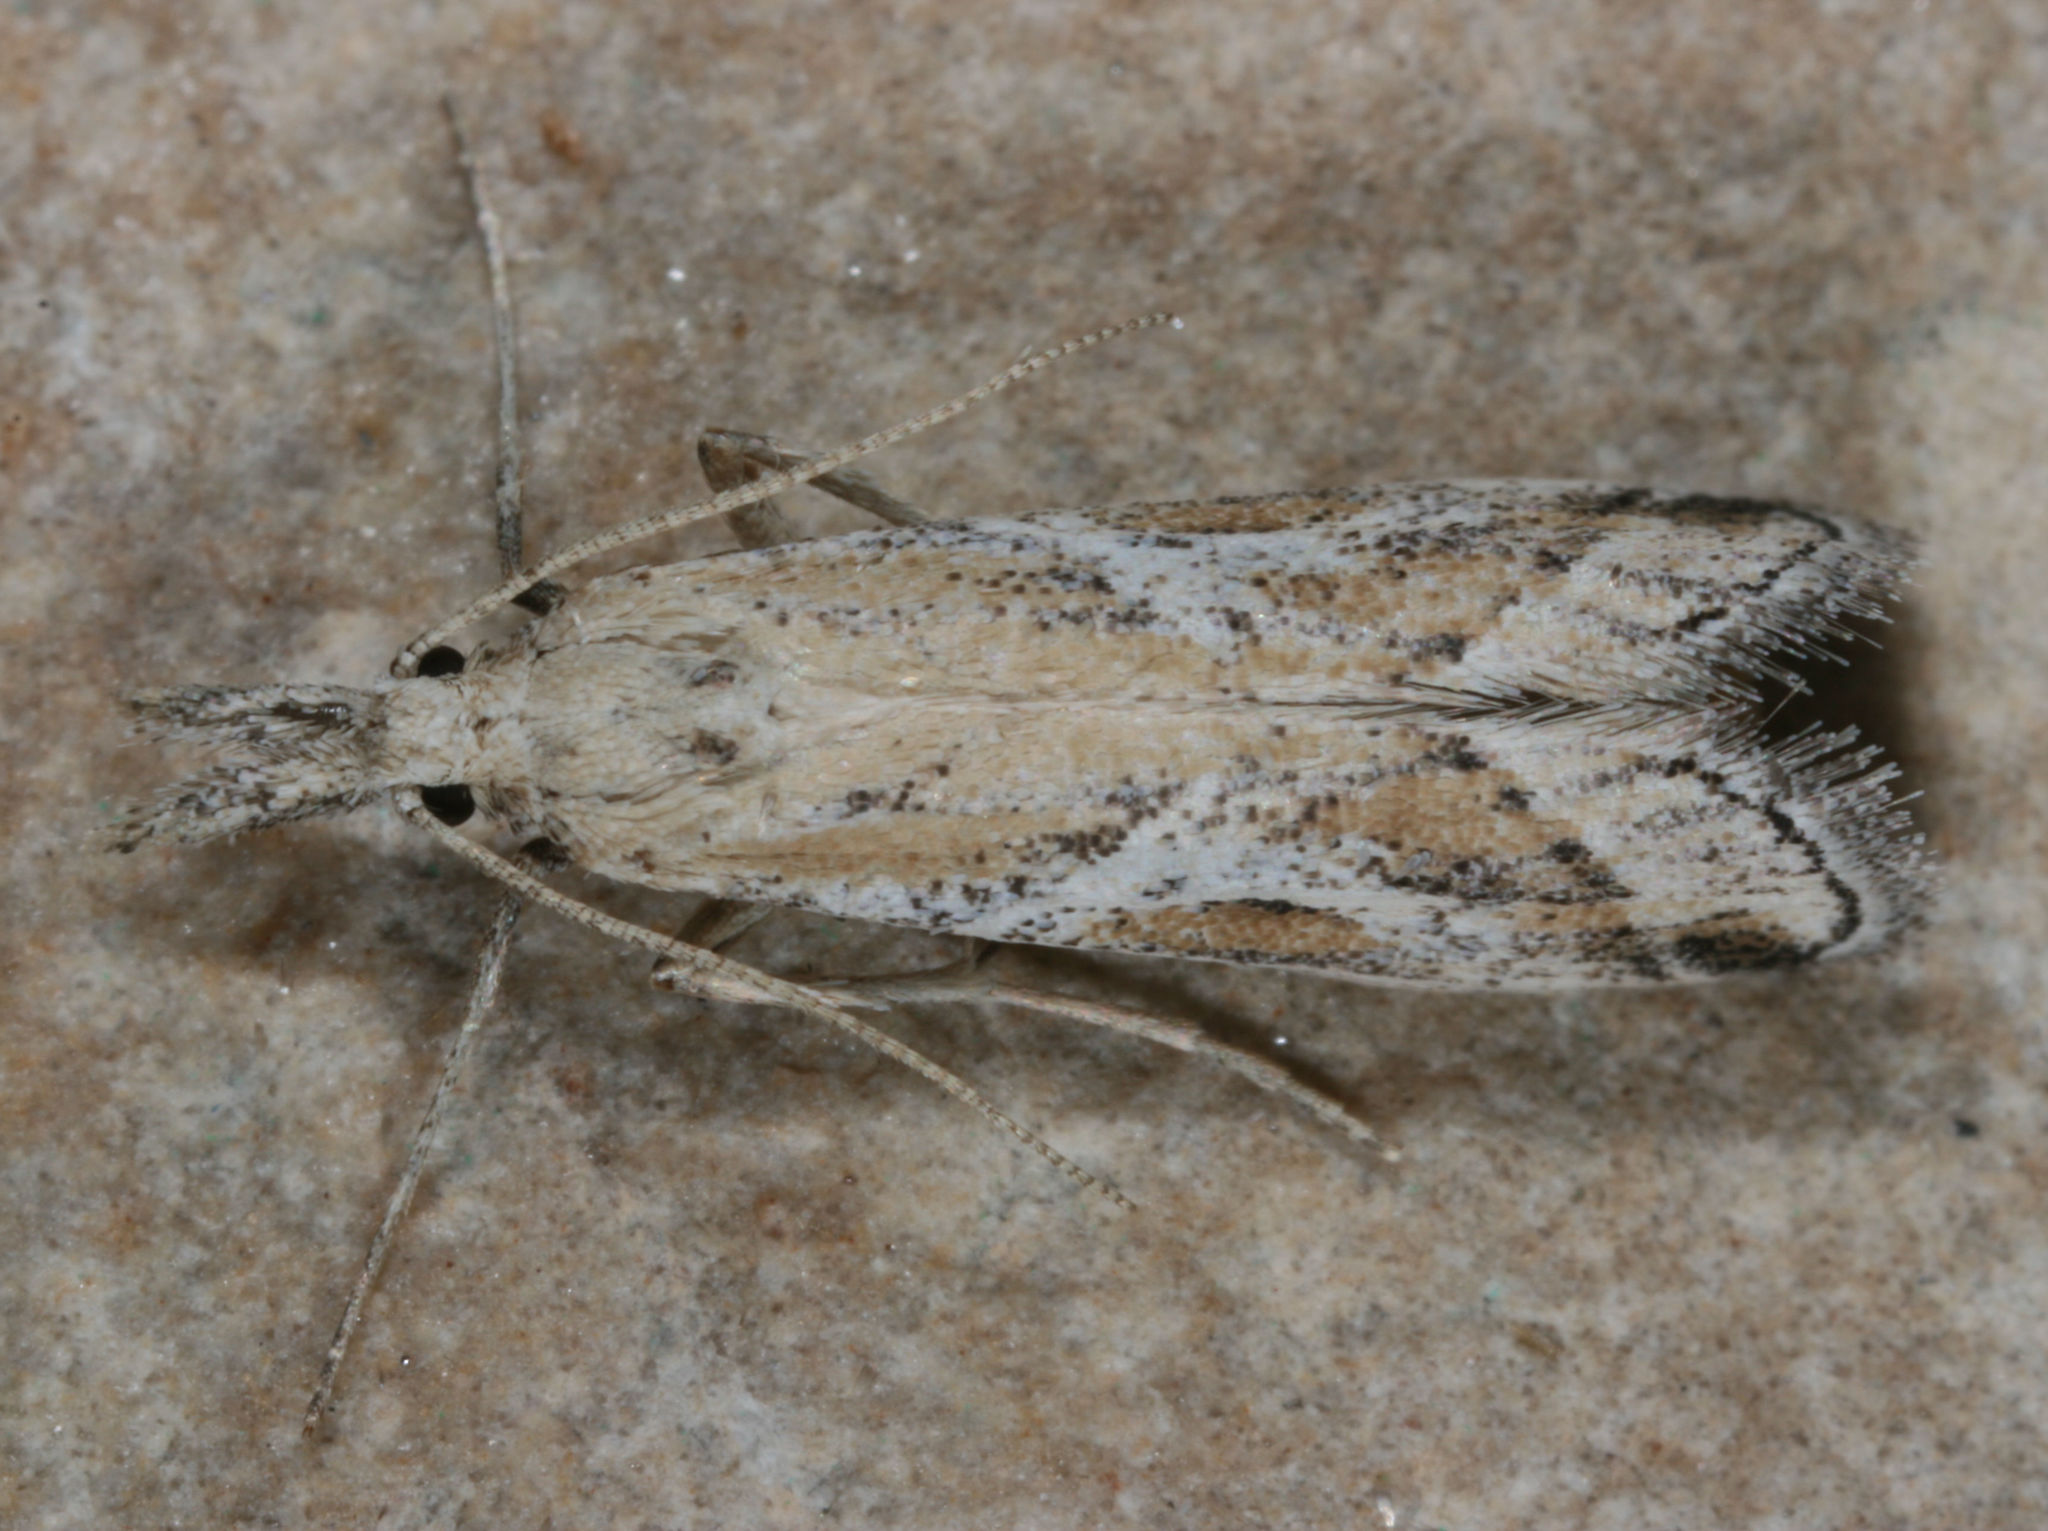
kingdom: Animalia
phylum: Arthropoda
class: Insecta
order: Lepidoptera
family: Pyralidae
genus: Alpheias
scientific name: Alpheias Decaturia pectinalis
